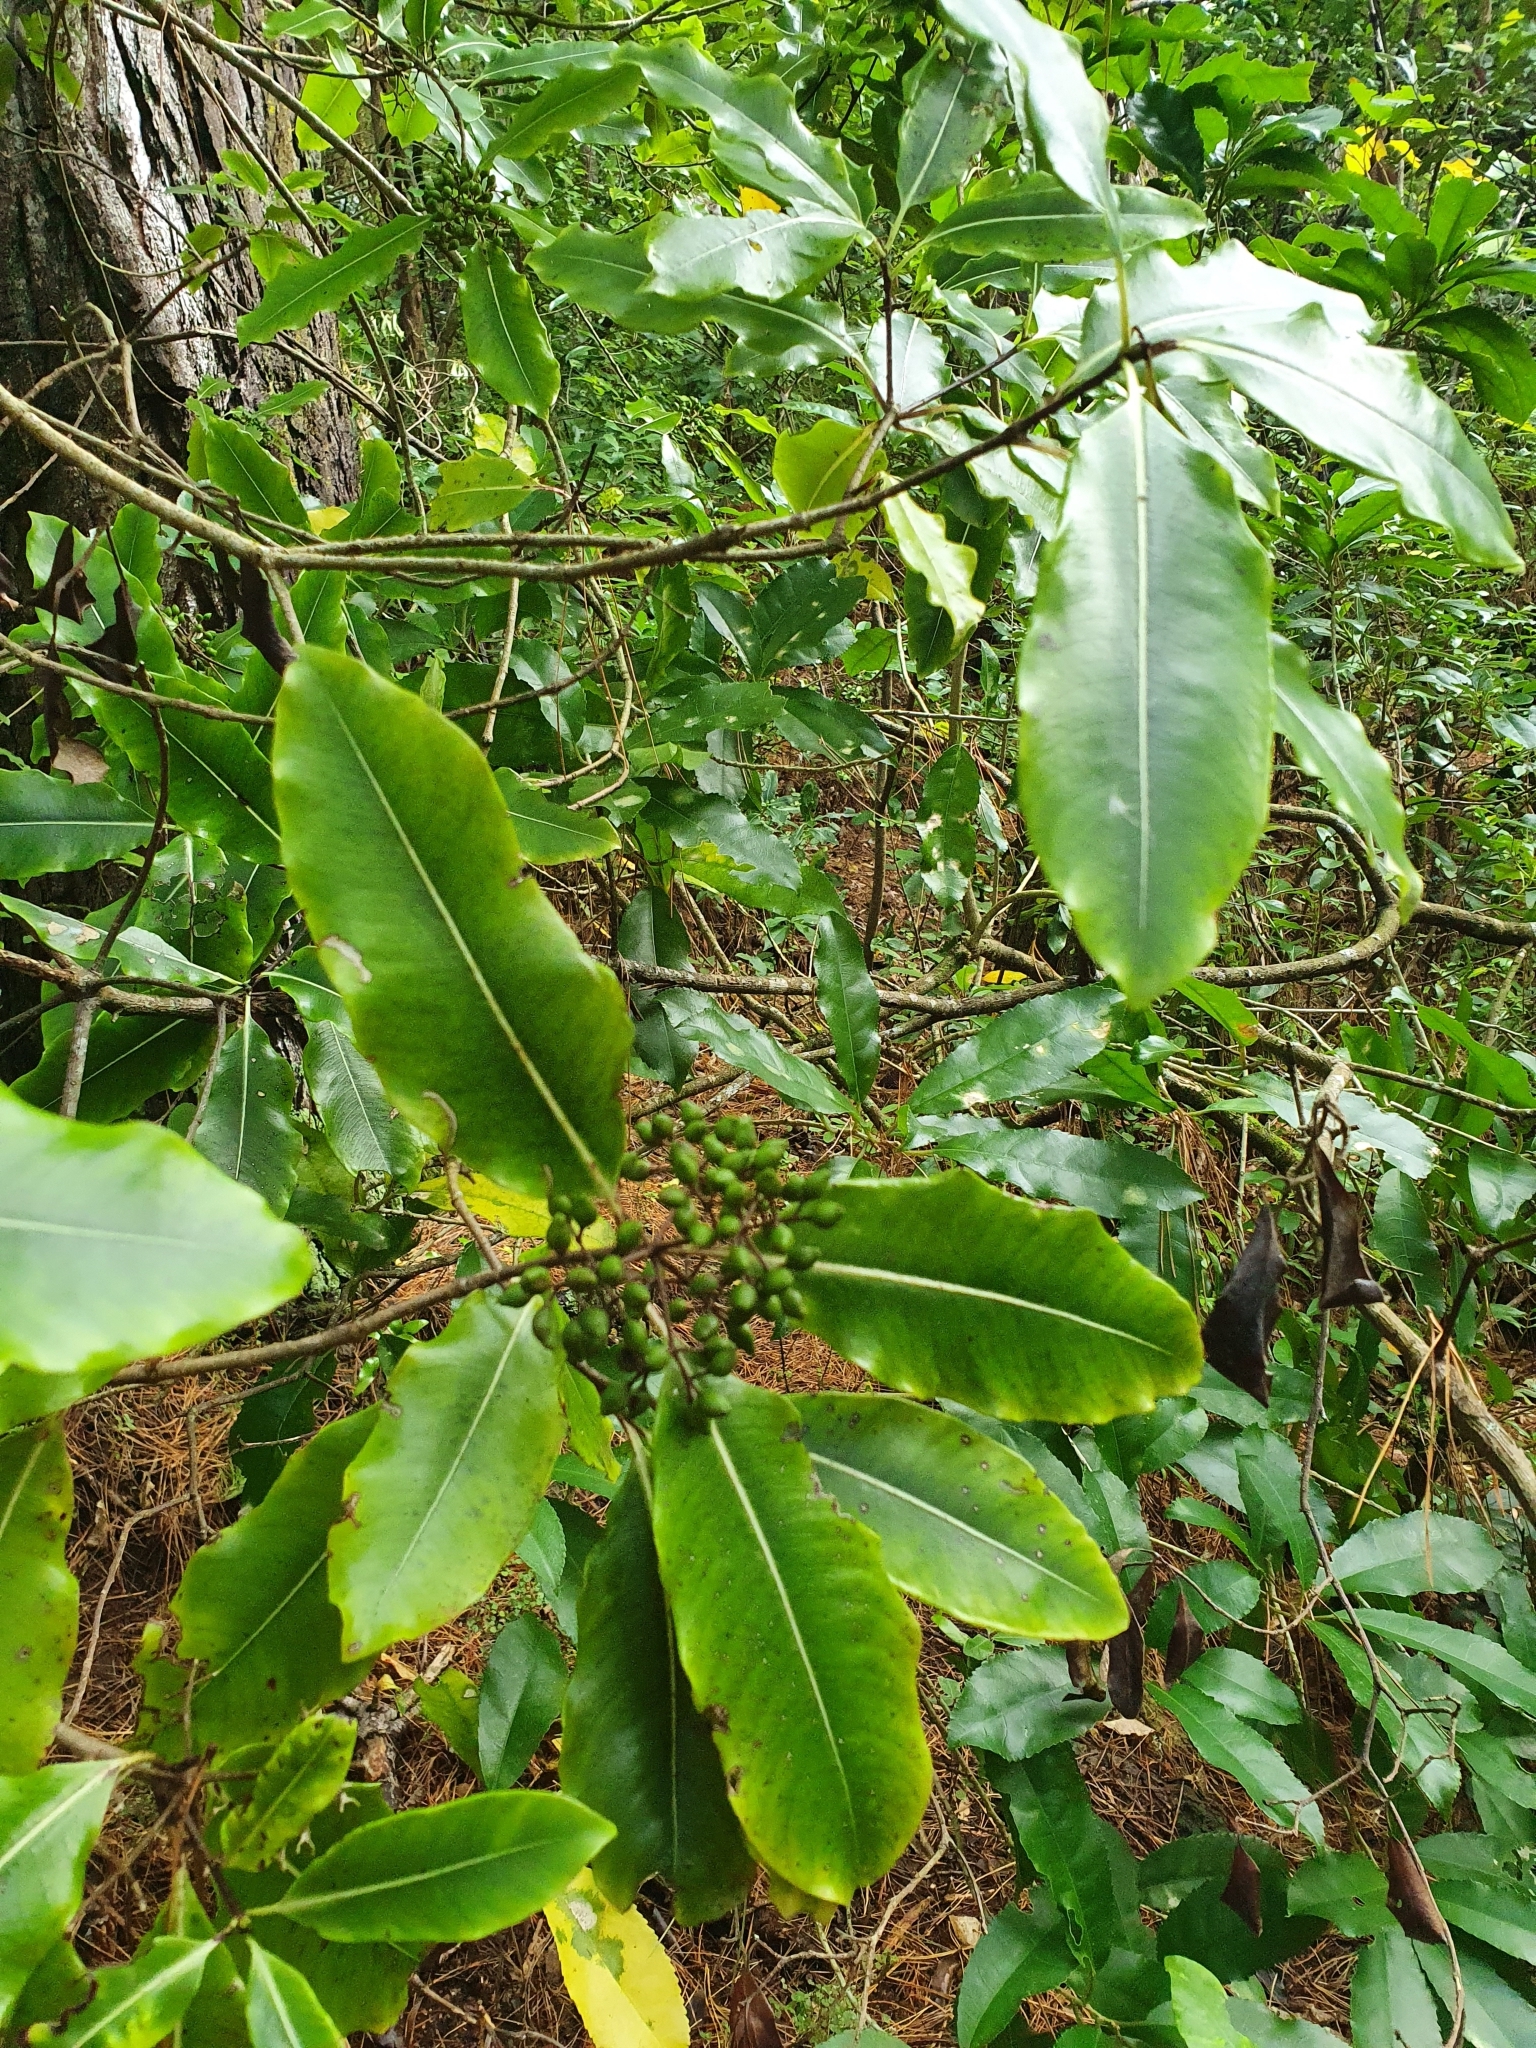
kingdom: Plantae
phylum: Tracheophyta
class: Magnoliopsida
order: Apiales
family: Pittosporaceae
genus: Pittosporum
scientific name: Pittosporum eugenioides
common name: Lemonwood
